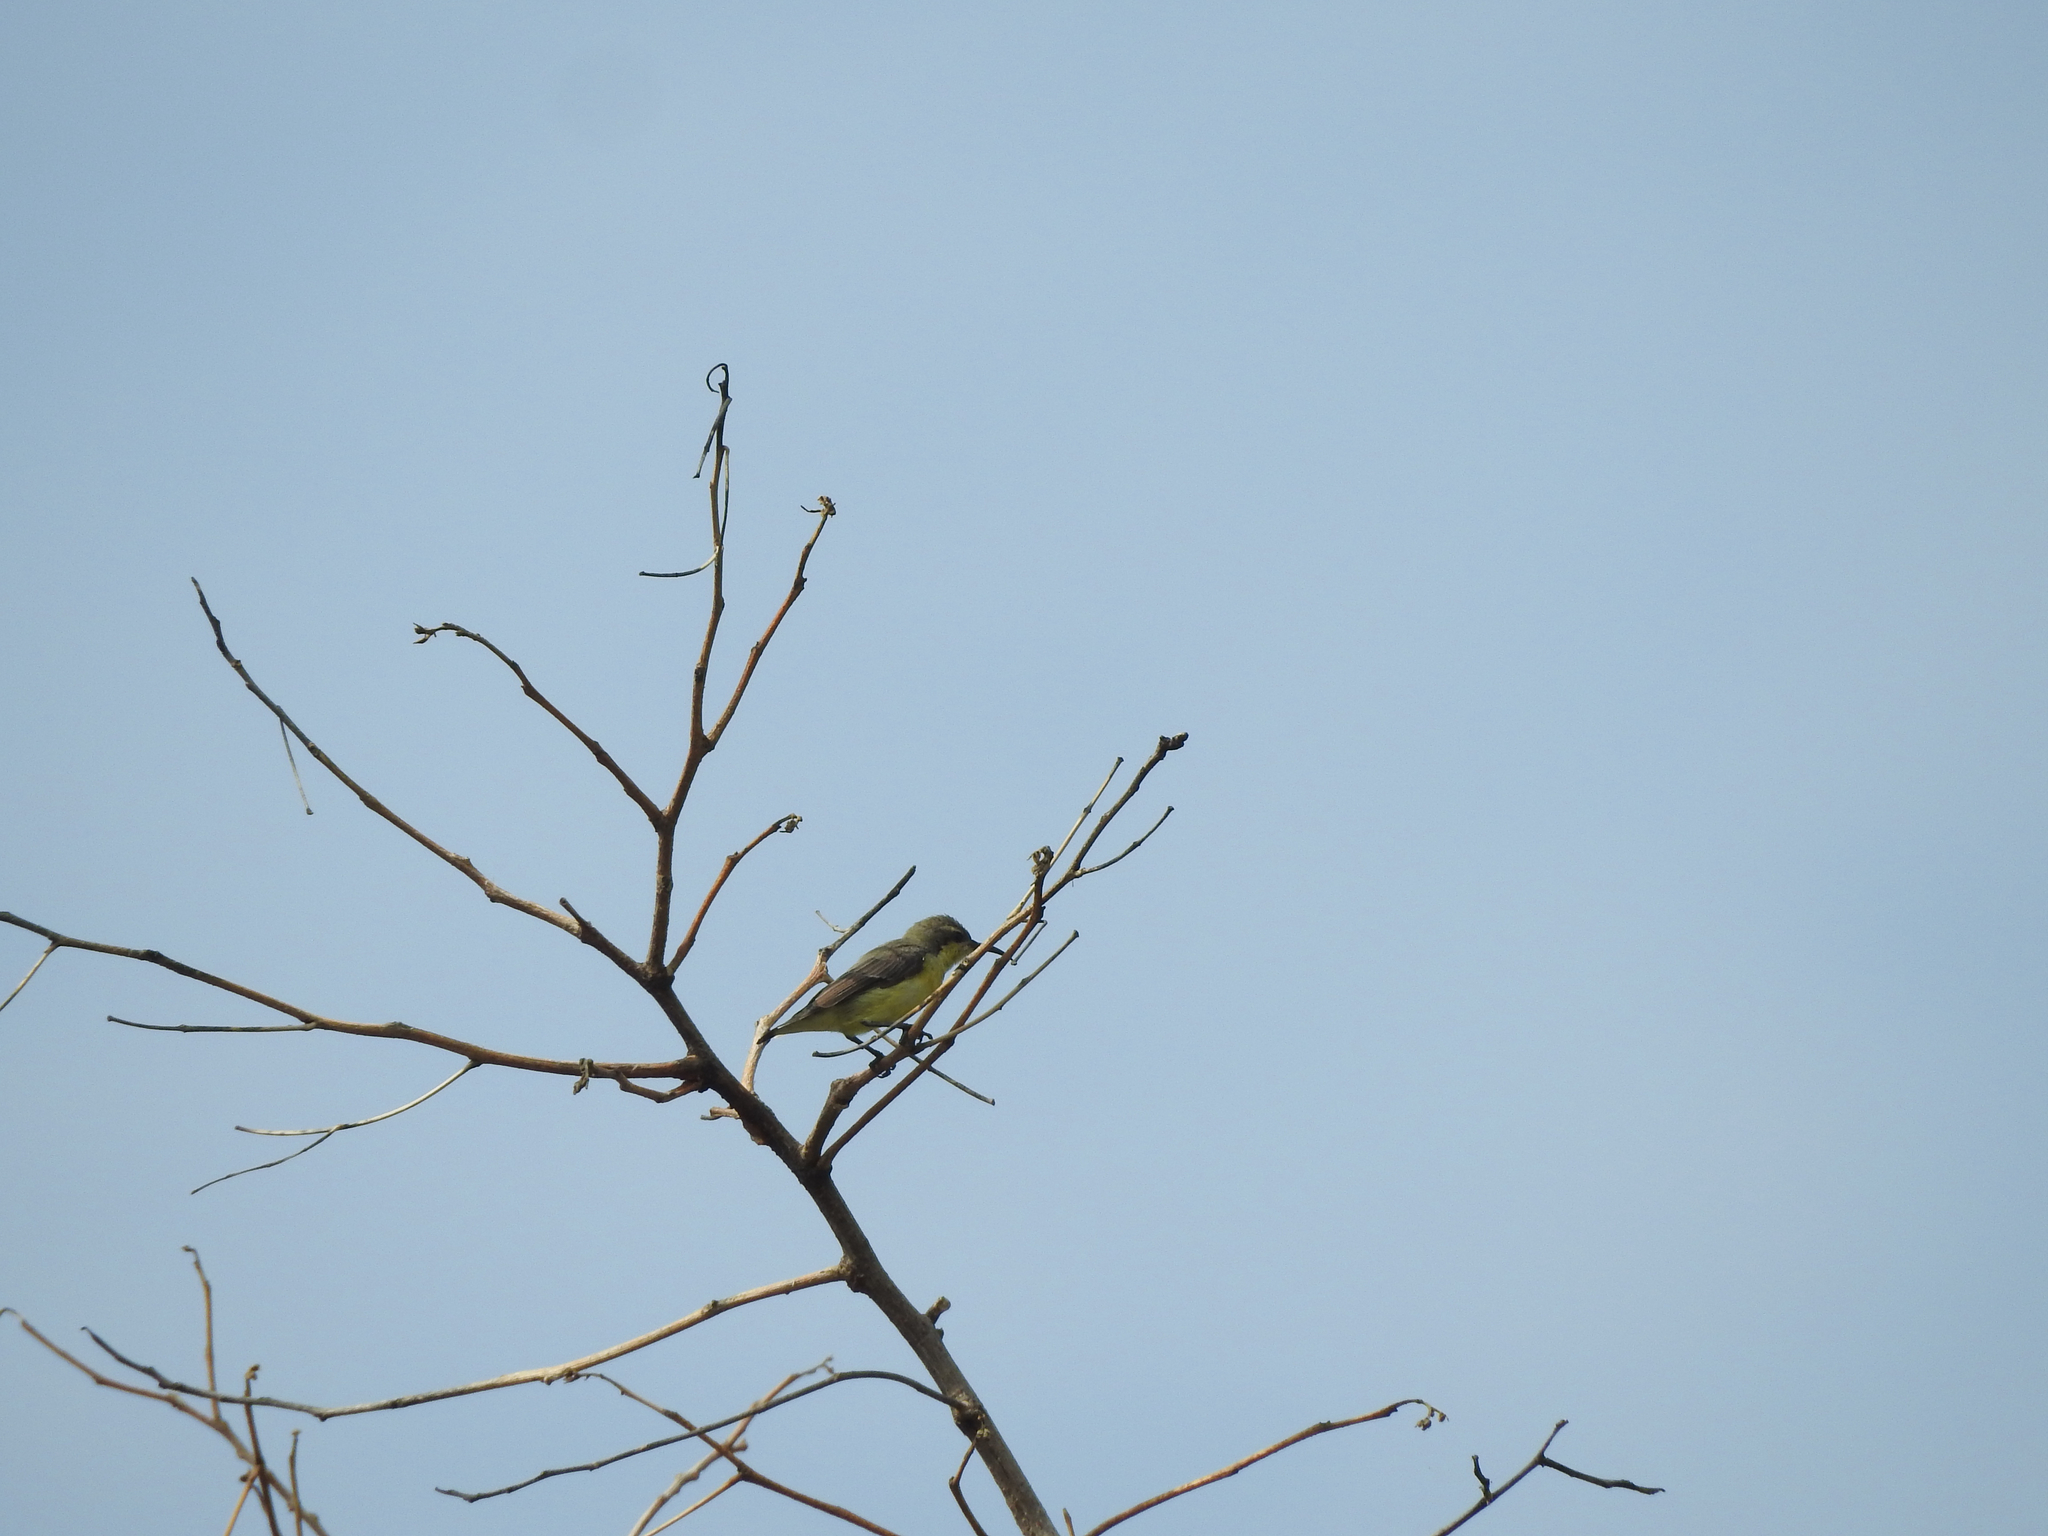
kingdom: Animalia
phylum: Chordata
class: Aves
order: Passeriformes
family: Nectariniidae
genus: Cinnyris
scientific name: Cinnyris asiaticus
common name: Purple sunbird
